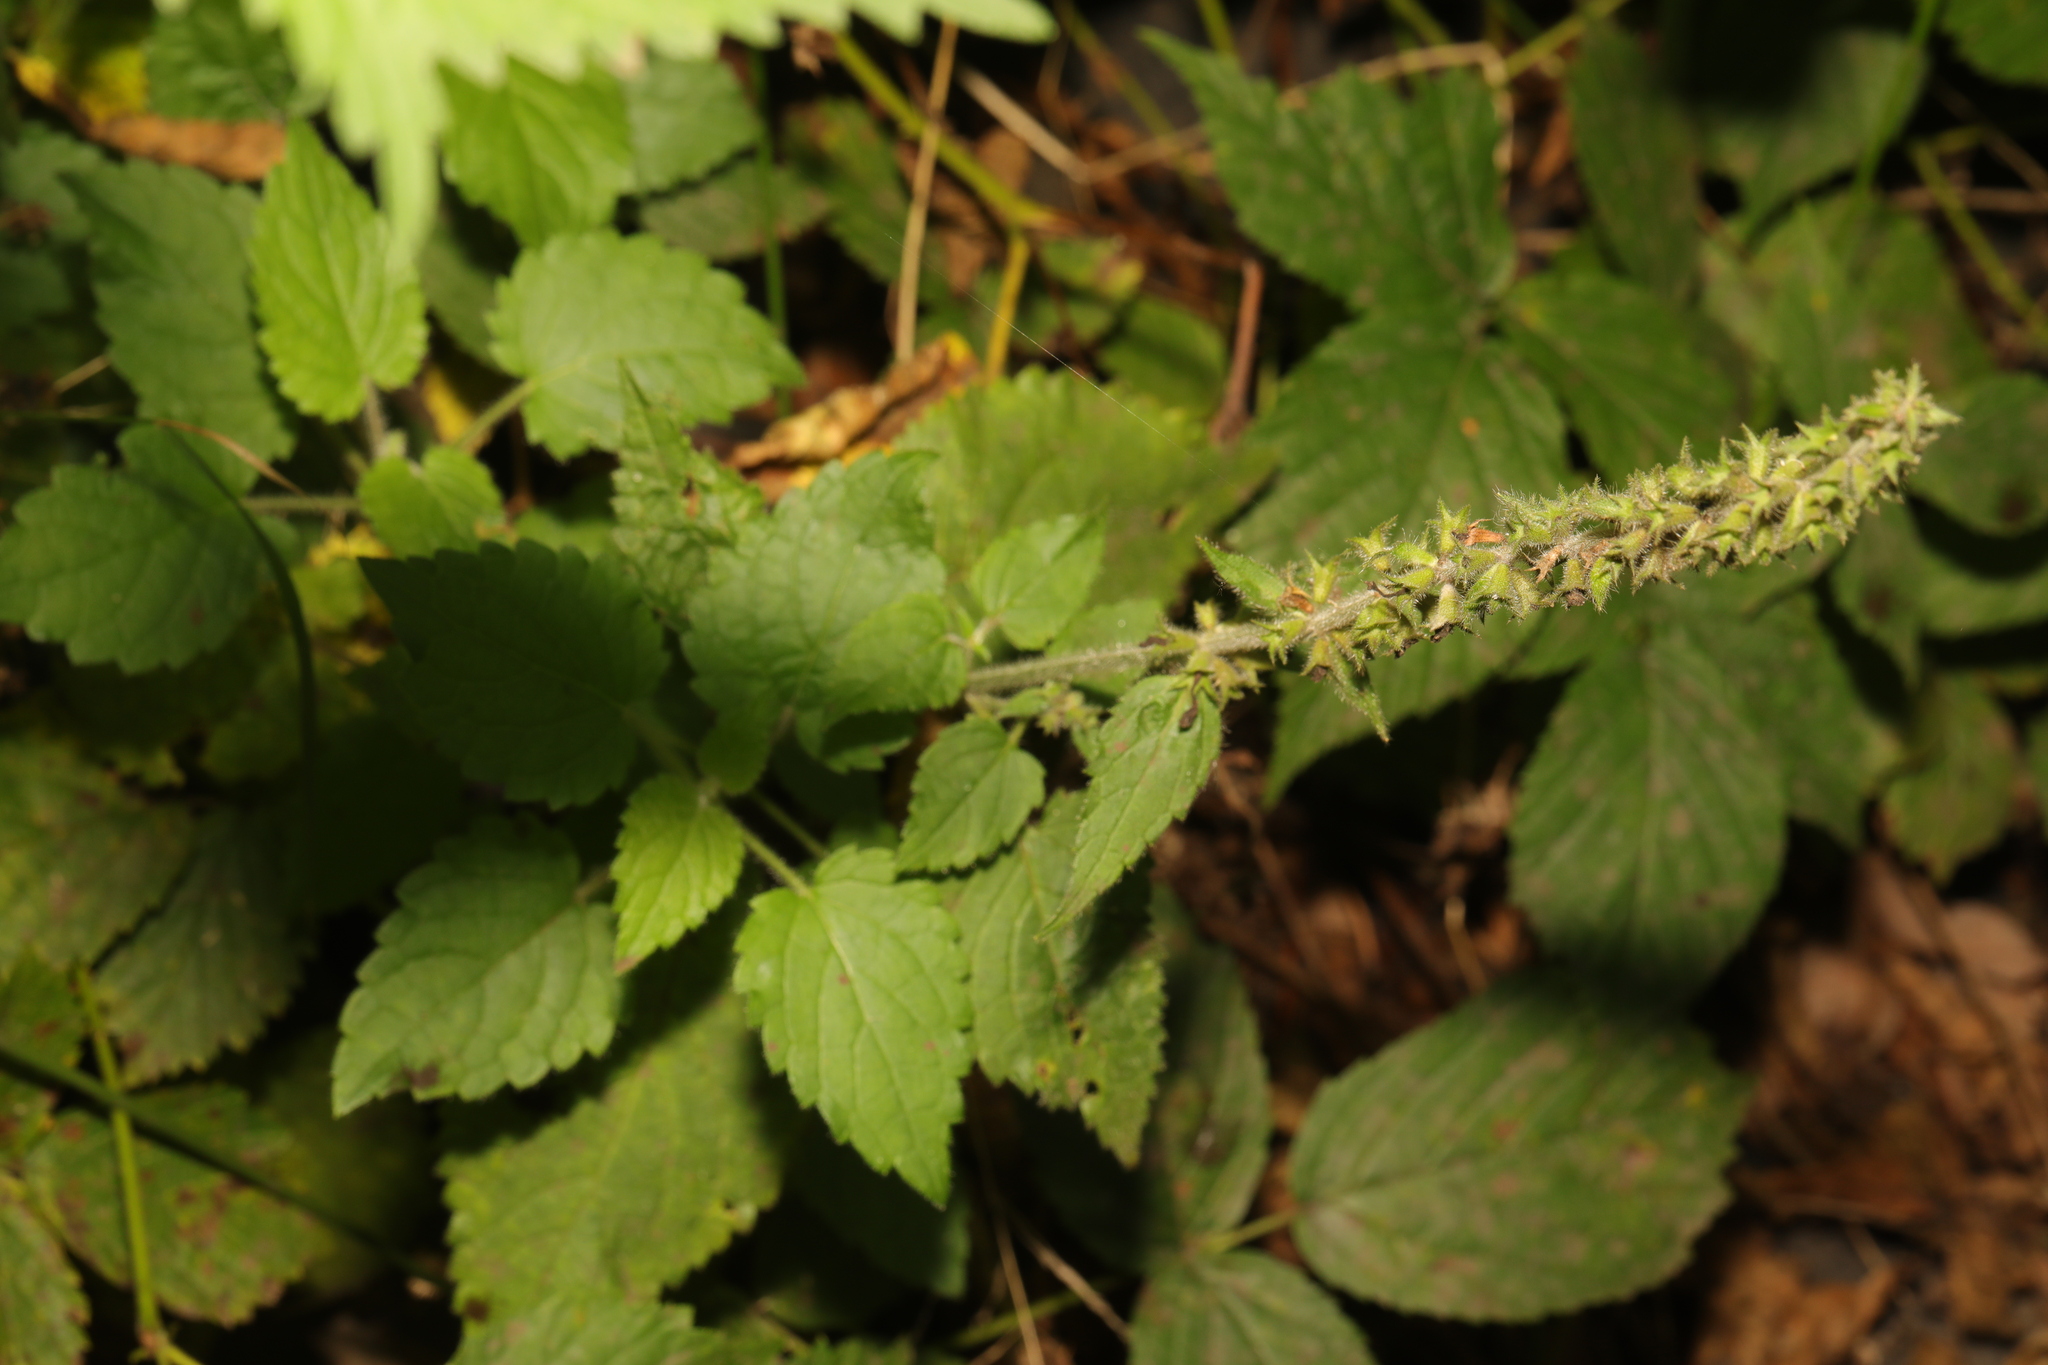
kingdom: Plantae
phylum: Tracheophyta
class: Magnoliopsida
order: Lamiales
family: Lamiaceae
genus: Stachys
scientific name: Stachys sylvatica
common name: Hedge woundwort
